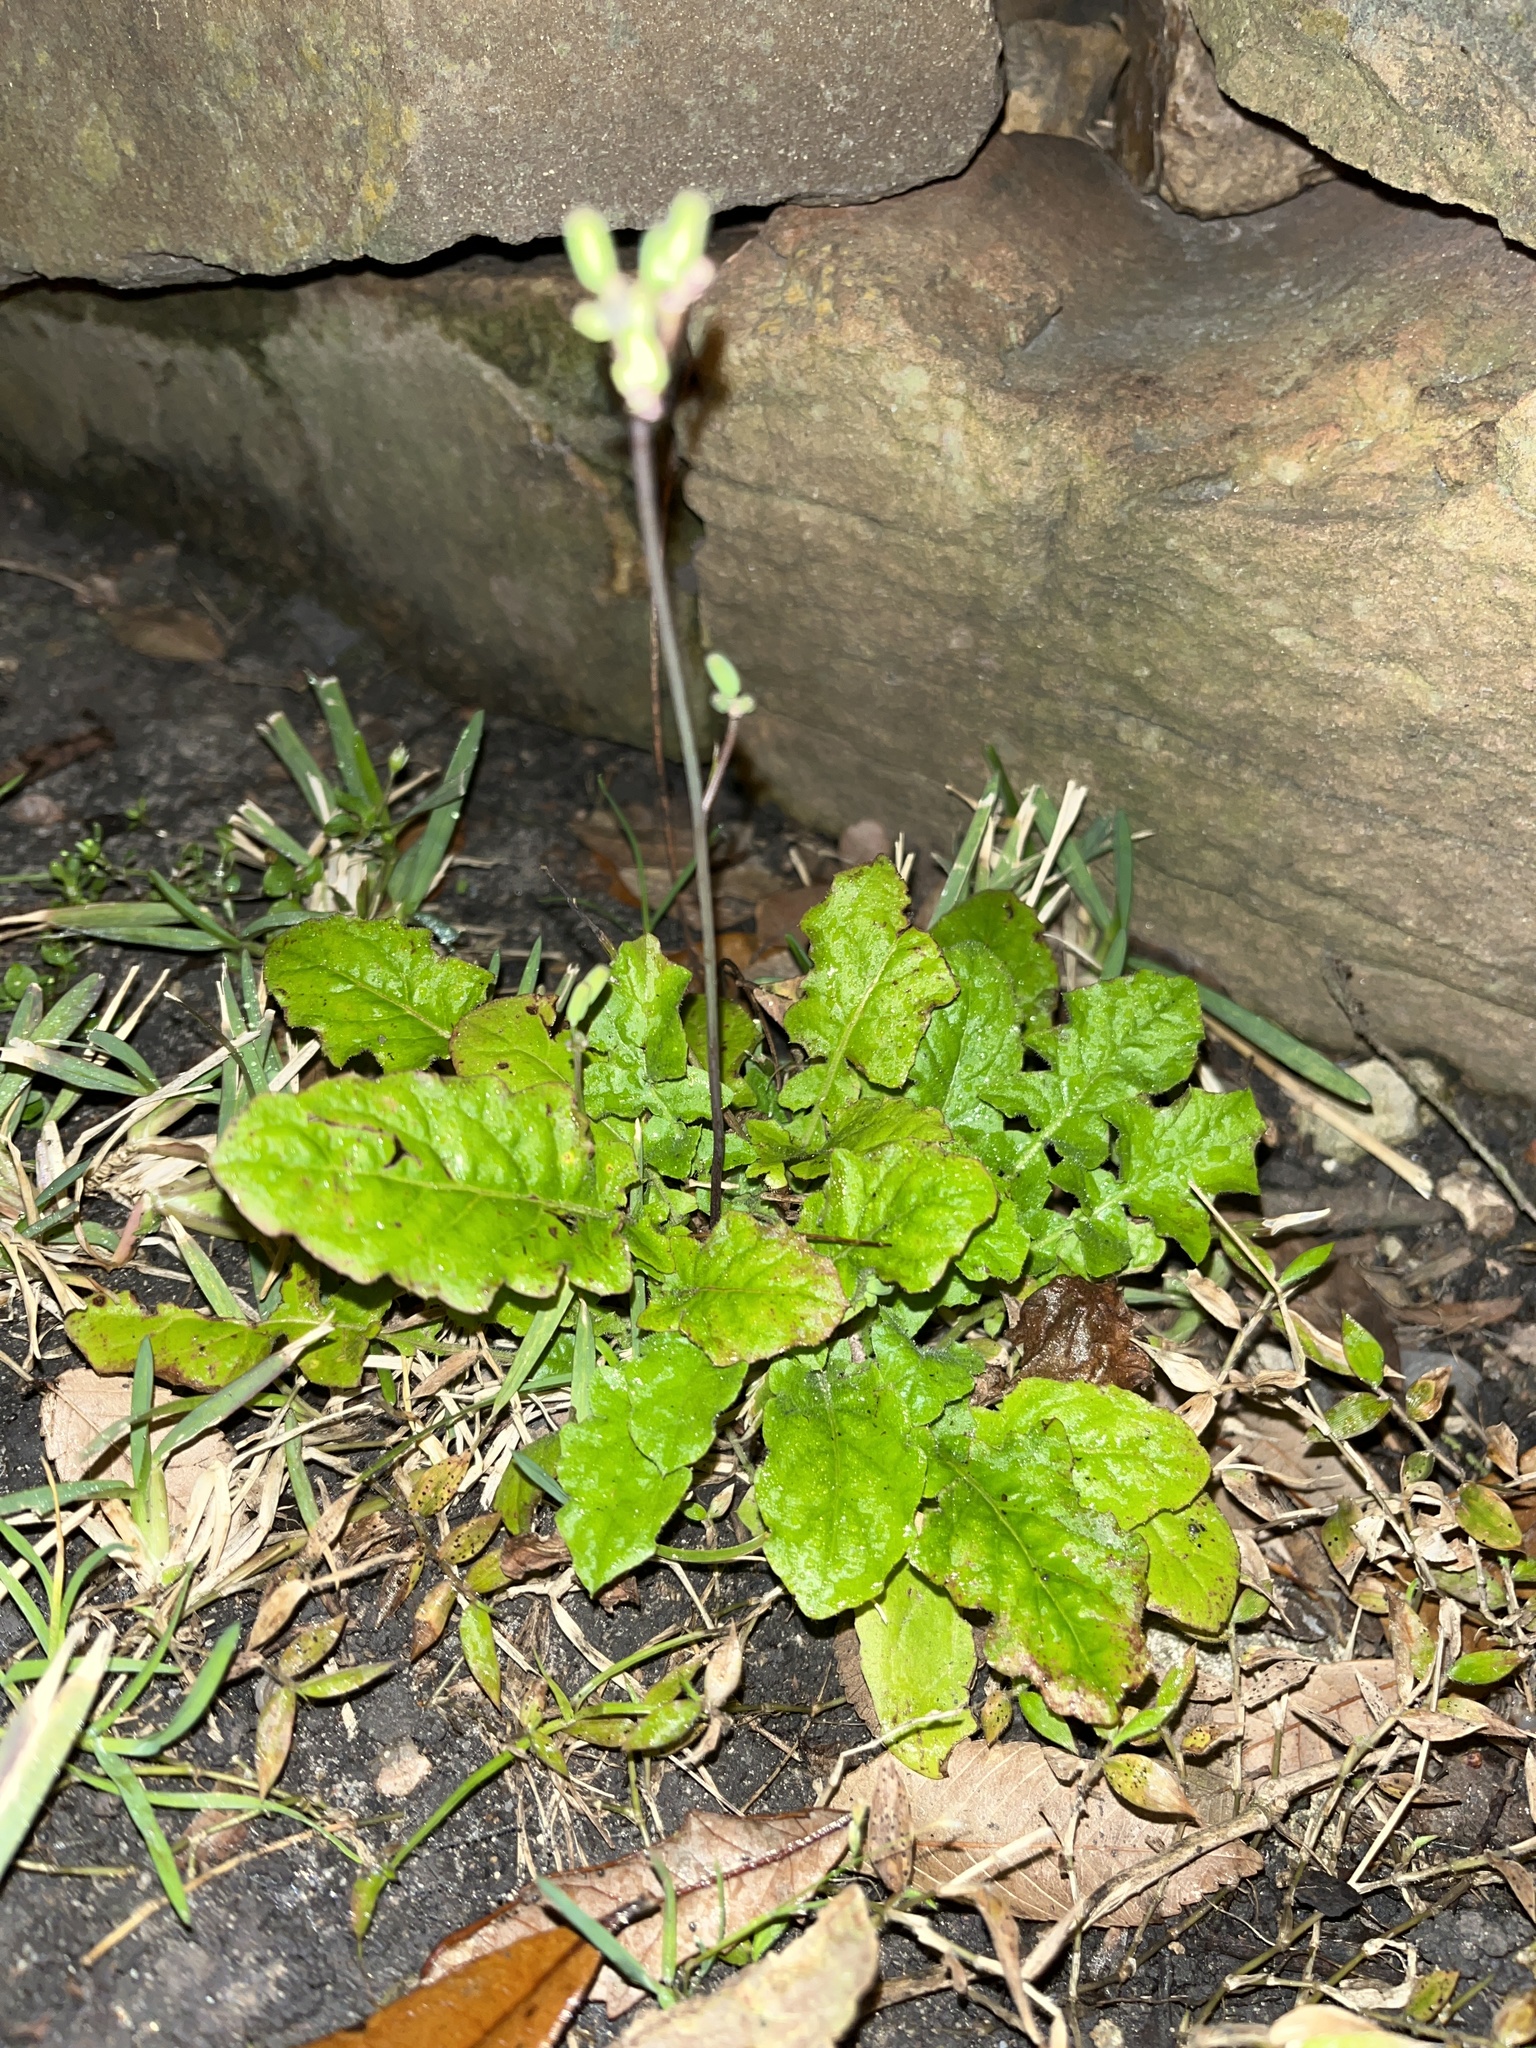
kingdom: Plantae
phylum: Tracheophyta
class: Magnoliopsida
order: Asterales
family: Asteraceae
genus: Youngia
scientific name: Youngia japonica
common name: Oriental false hawksbeard
